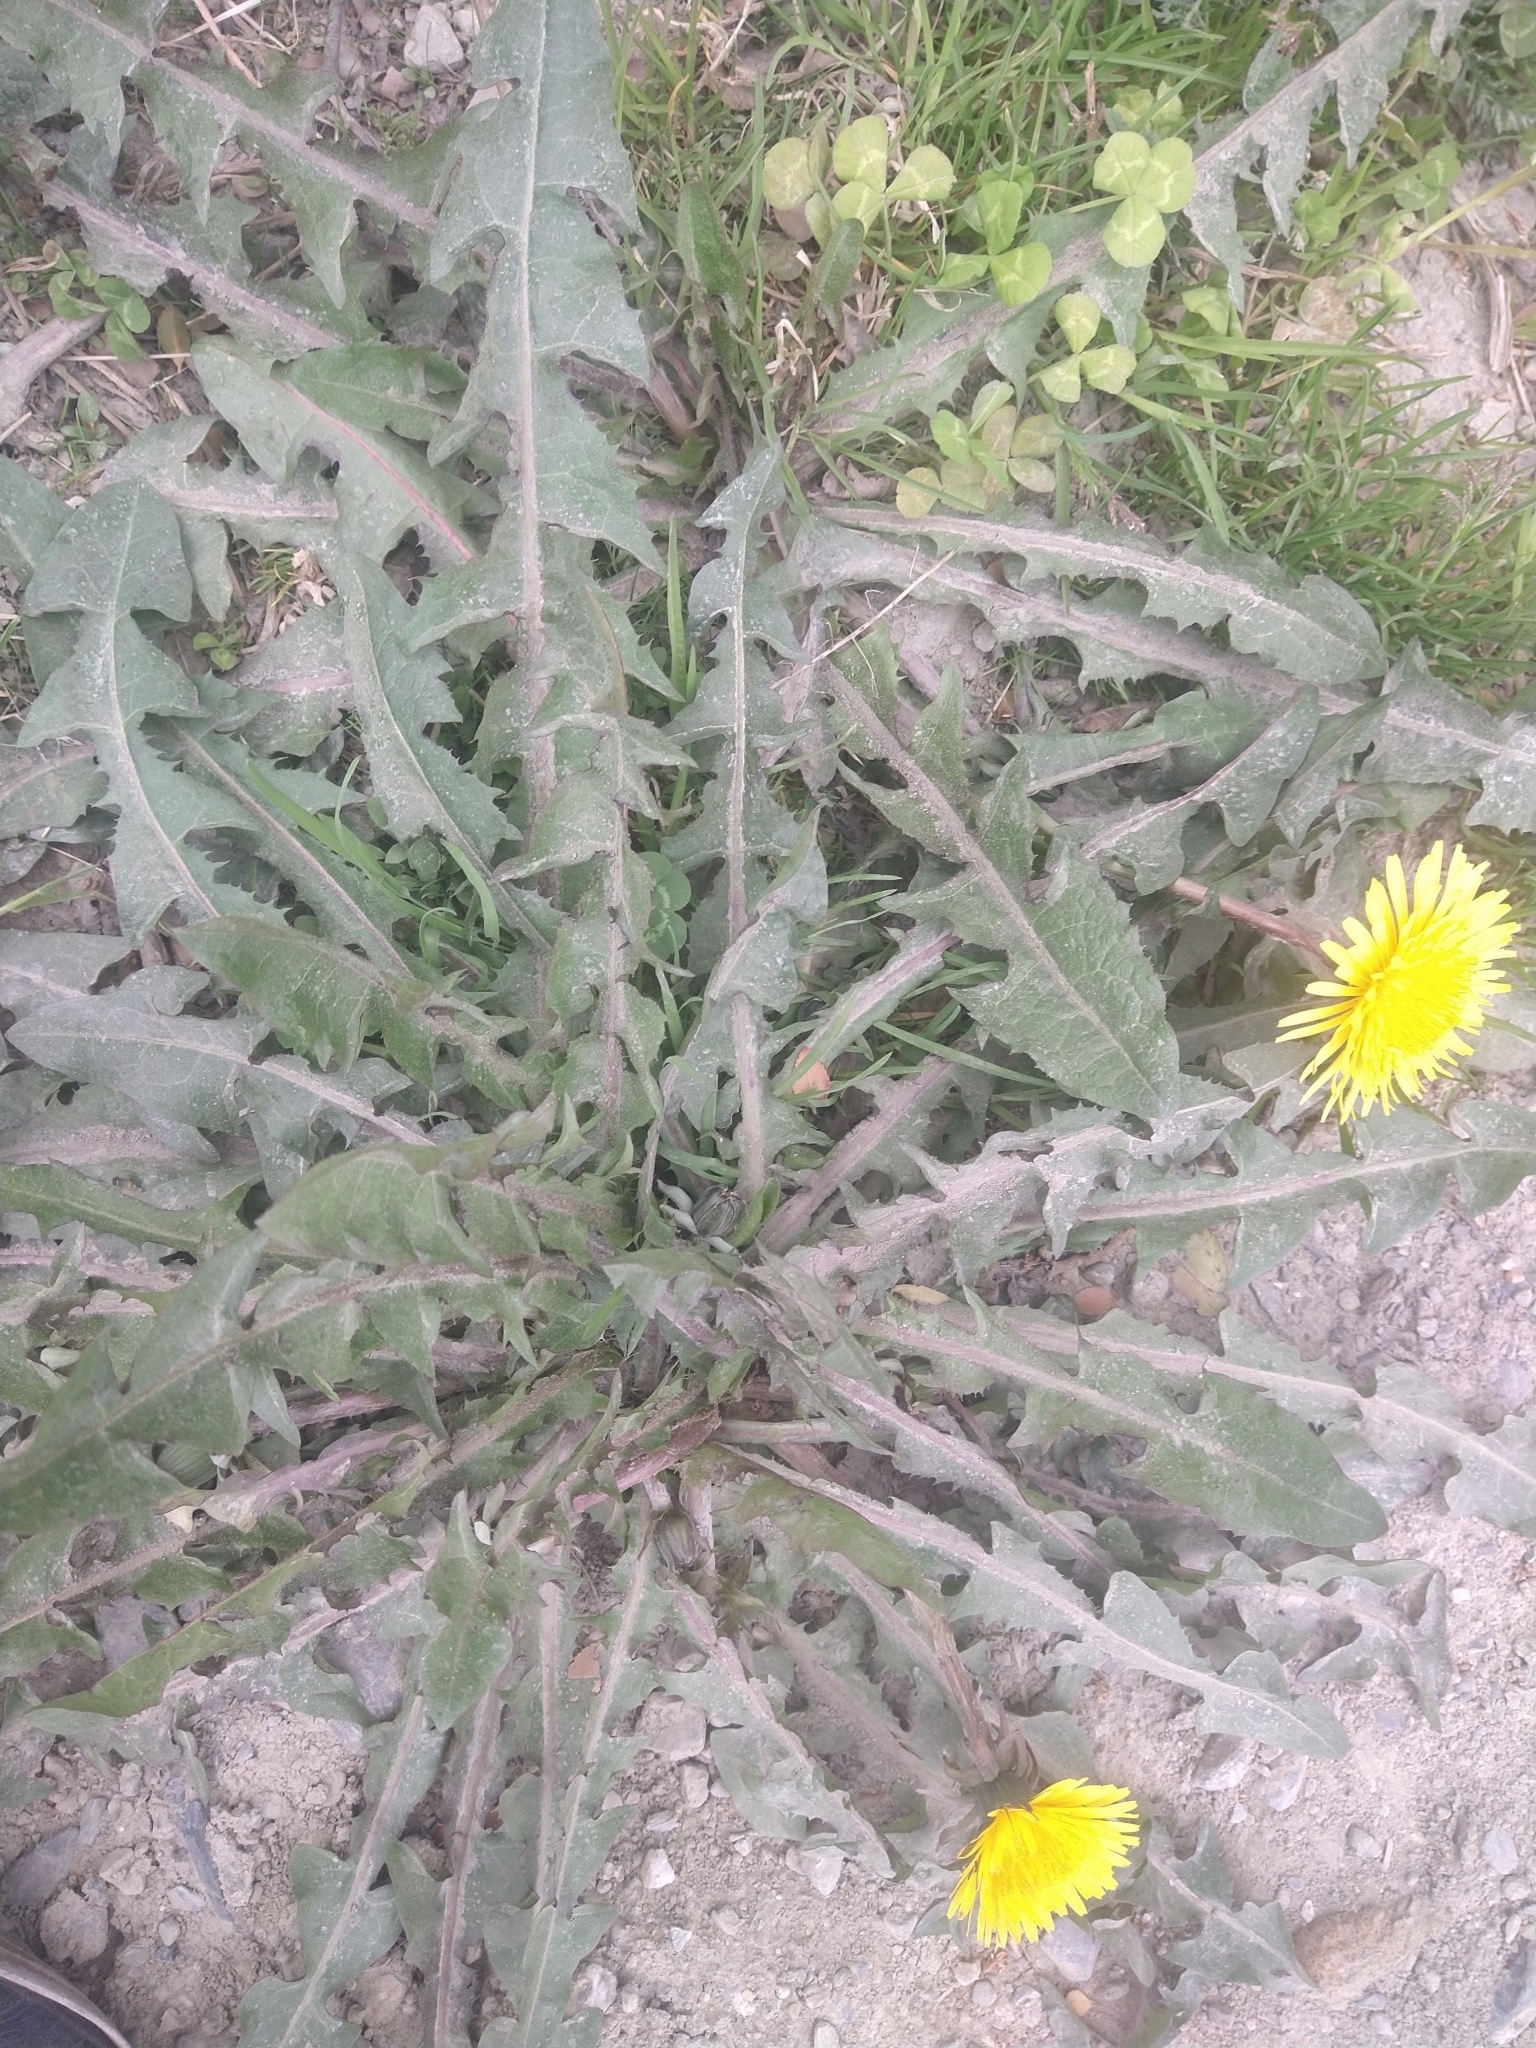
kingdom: Plantae
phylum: Tracheophyta
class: Magnoliopsida
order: Asterales
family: Asteraceae
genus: Taraxacum
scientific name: Taraxacum officinale
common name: Common dandelion
